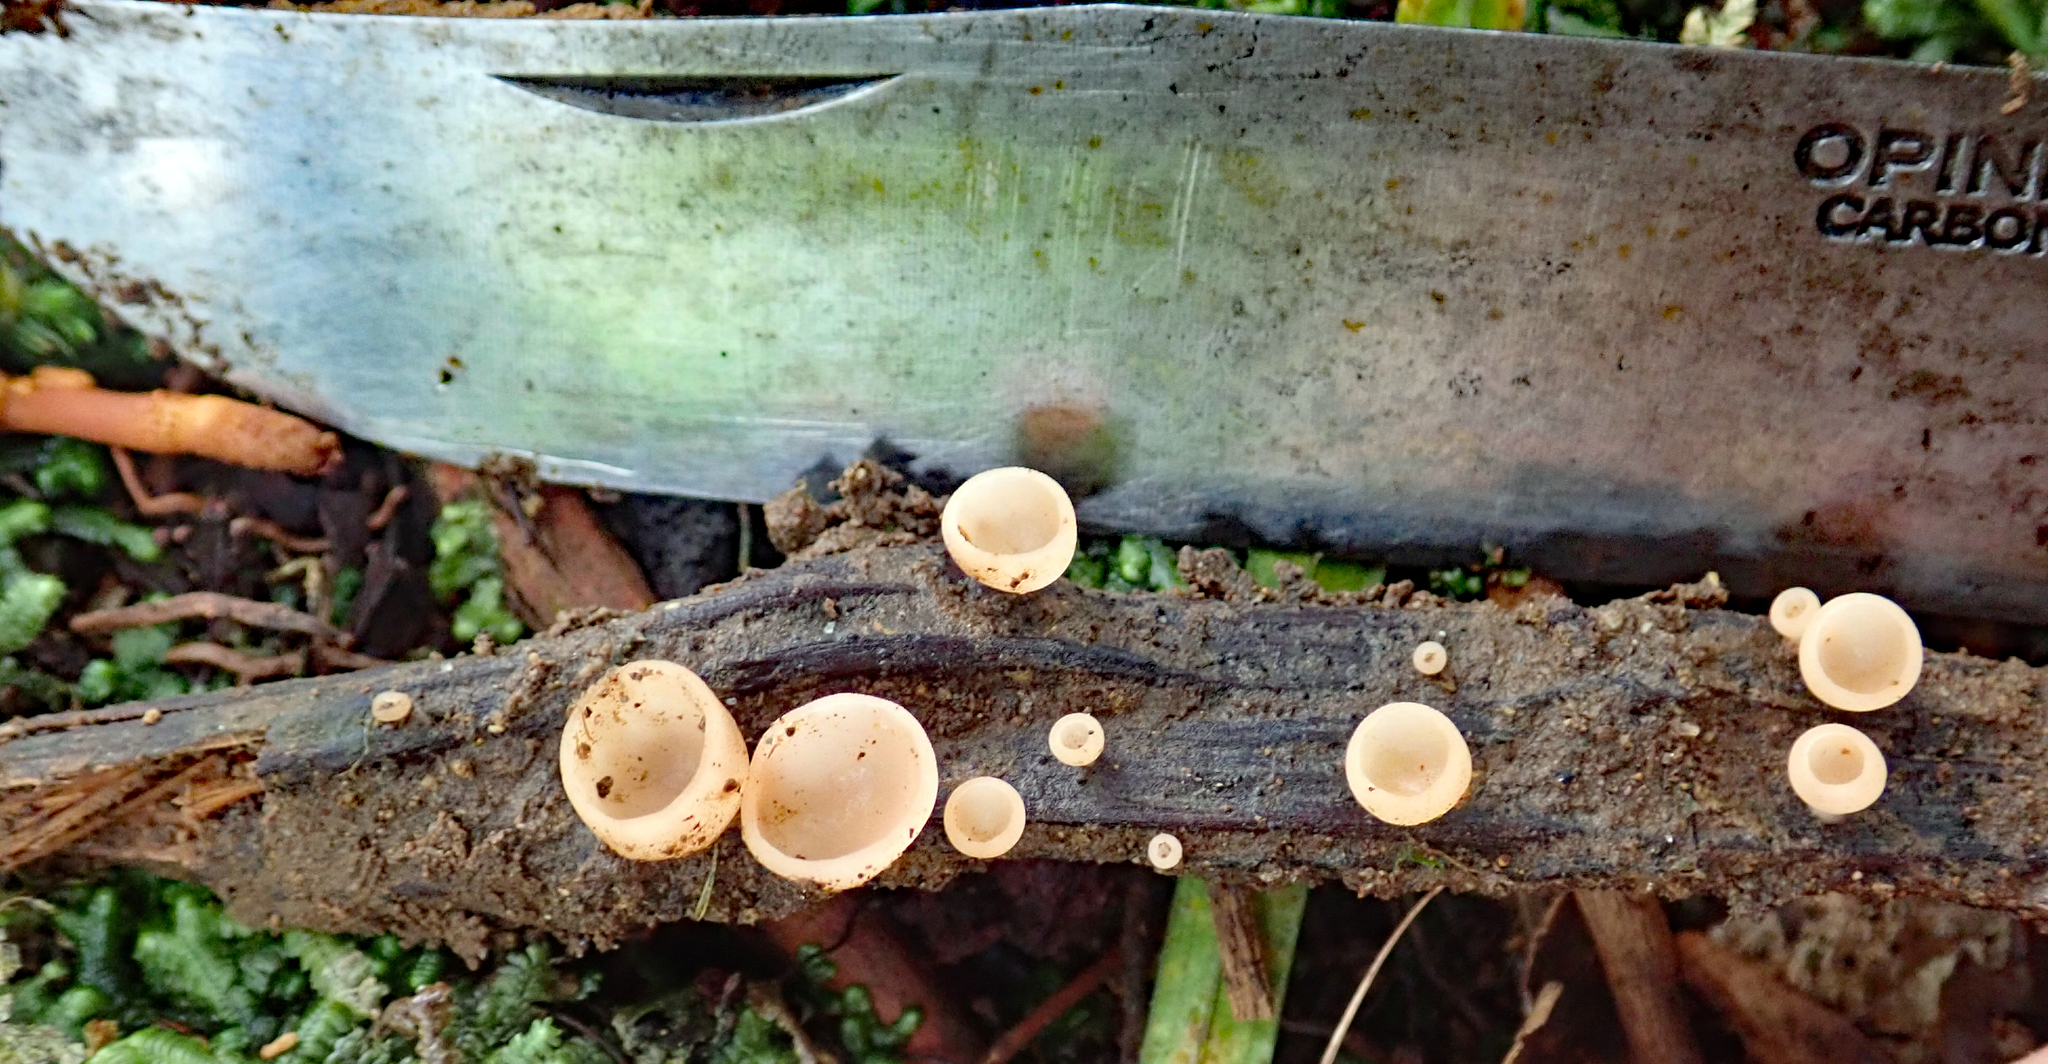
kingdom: Fungi
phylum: Ascomycota
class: Pezizomycetes
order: Pezizales
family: Sarcoscyphaceae
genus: Cookeina
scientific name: Cookeina colensoi
